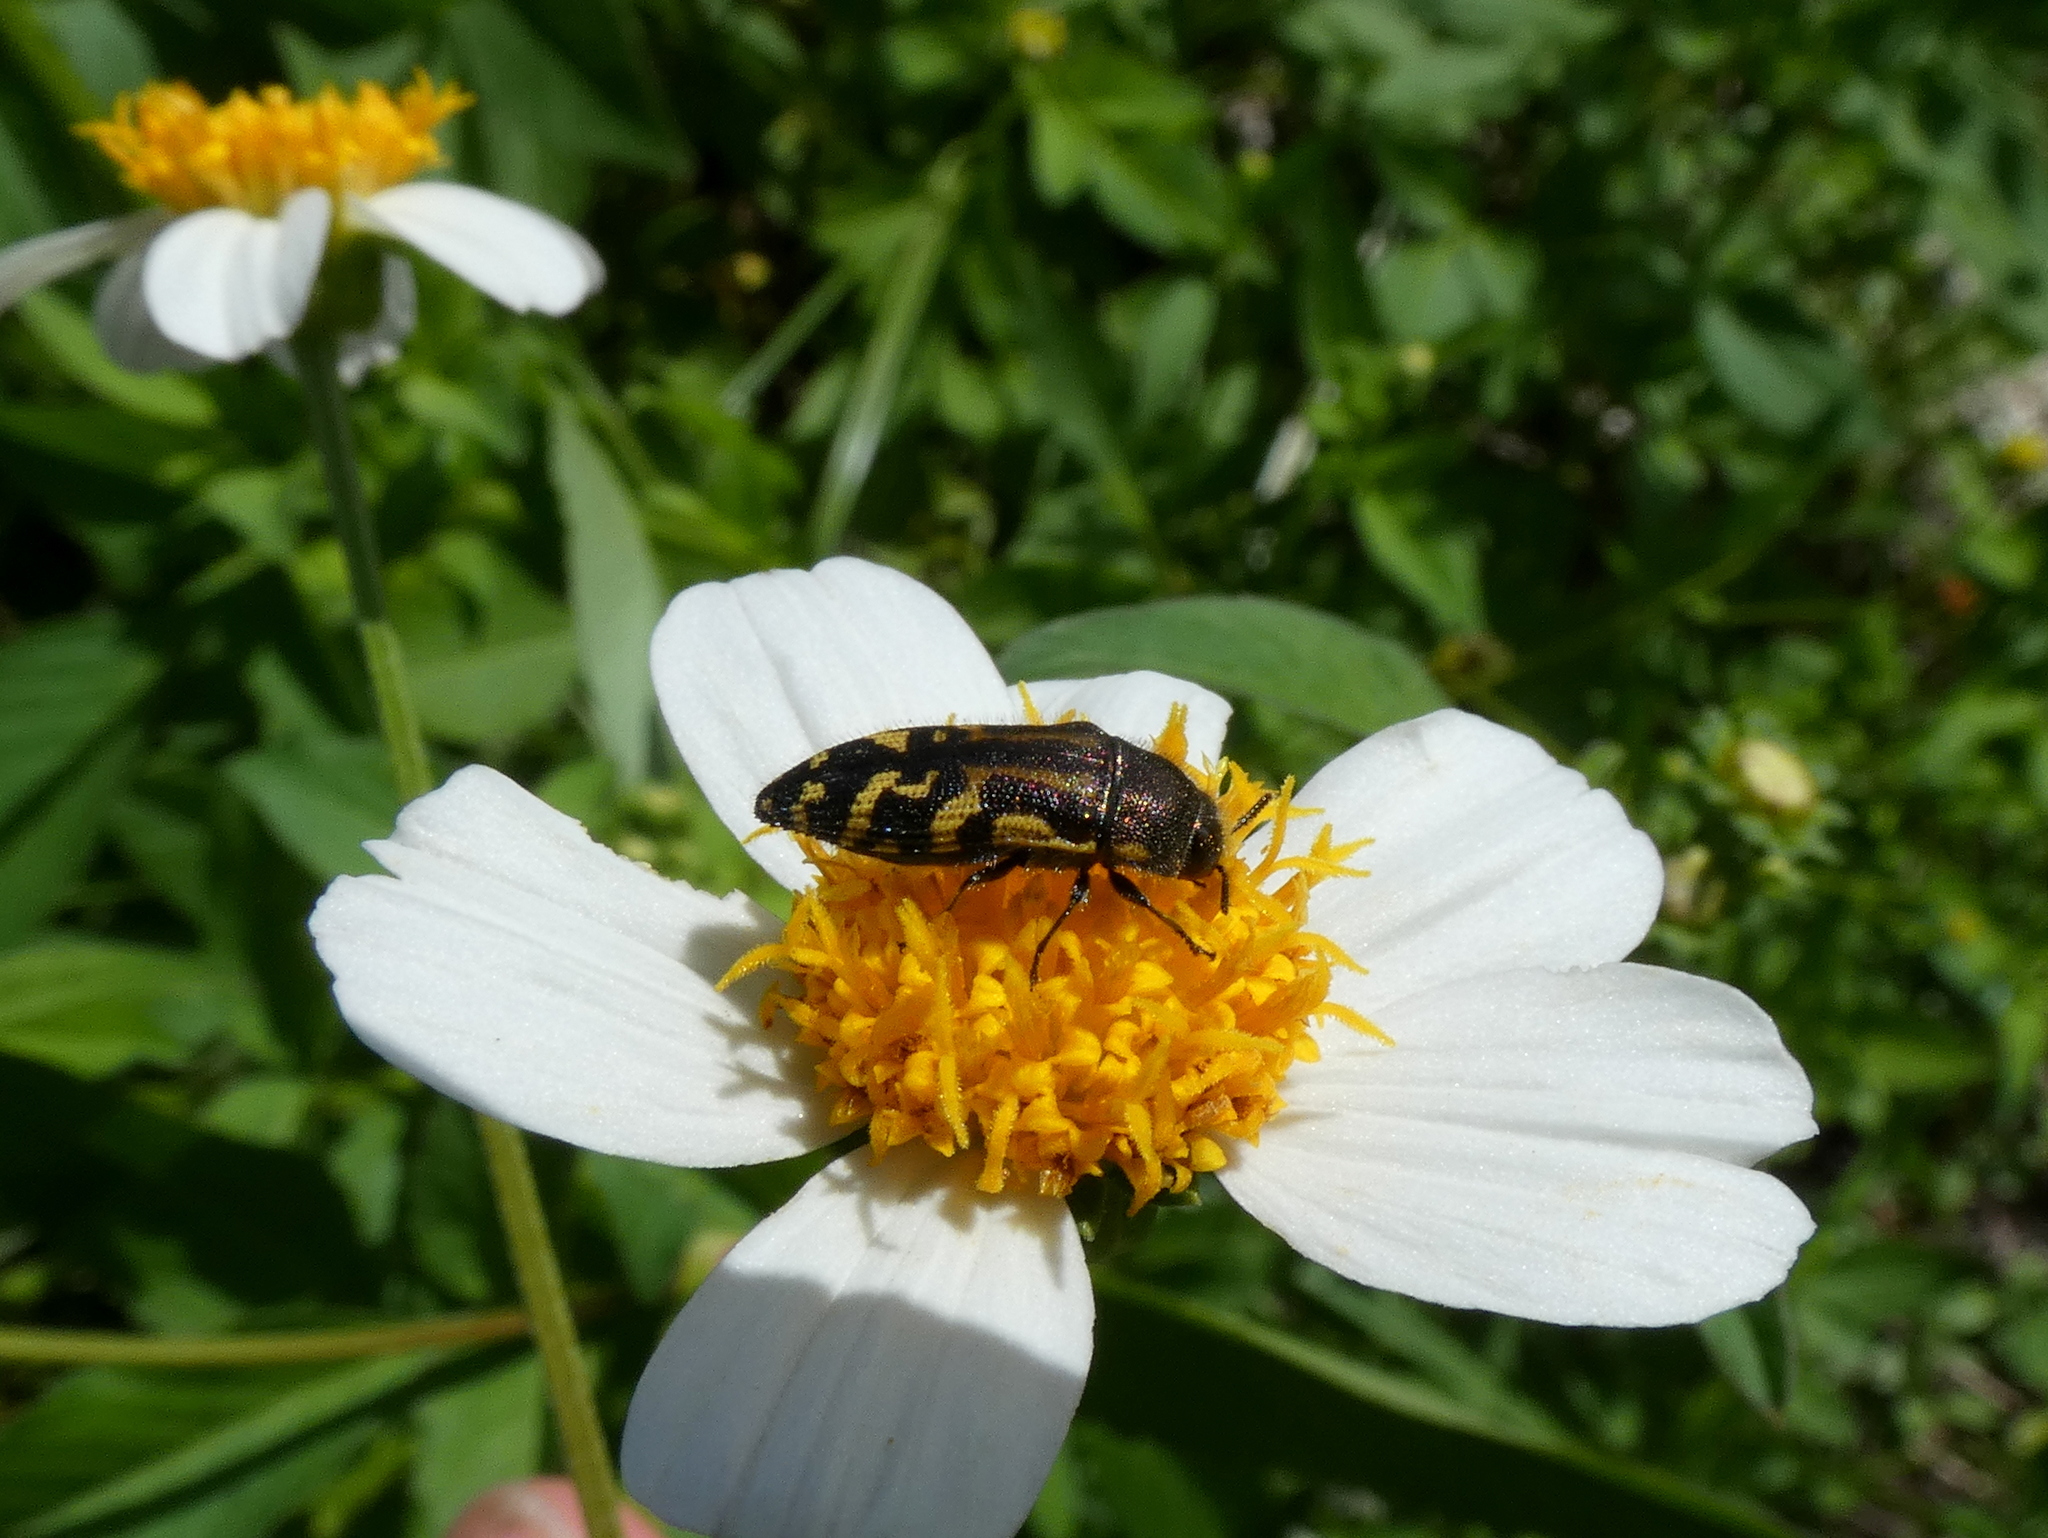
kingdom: Animalia
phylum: Arthropoda
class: Insecta
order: Coleoptera
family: Buprestidae
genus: Acmaeodera
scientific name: Acmaeodera pulchella
